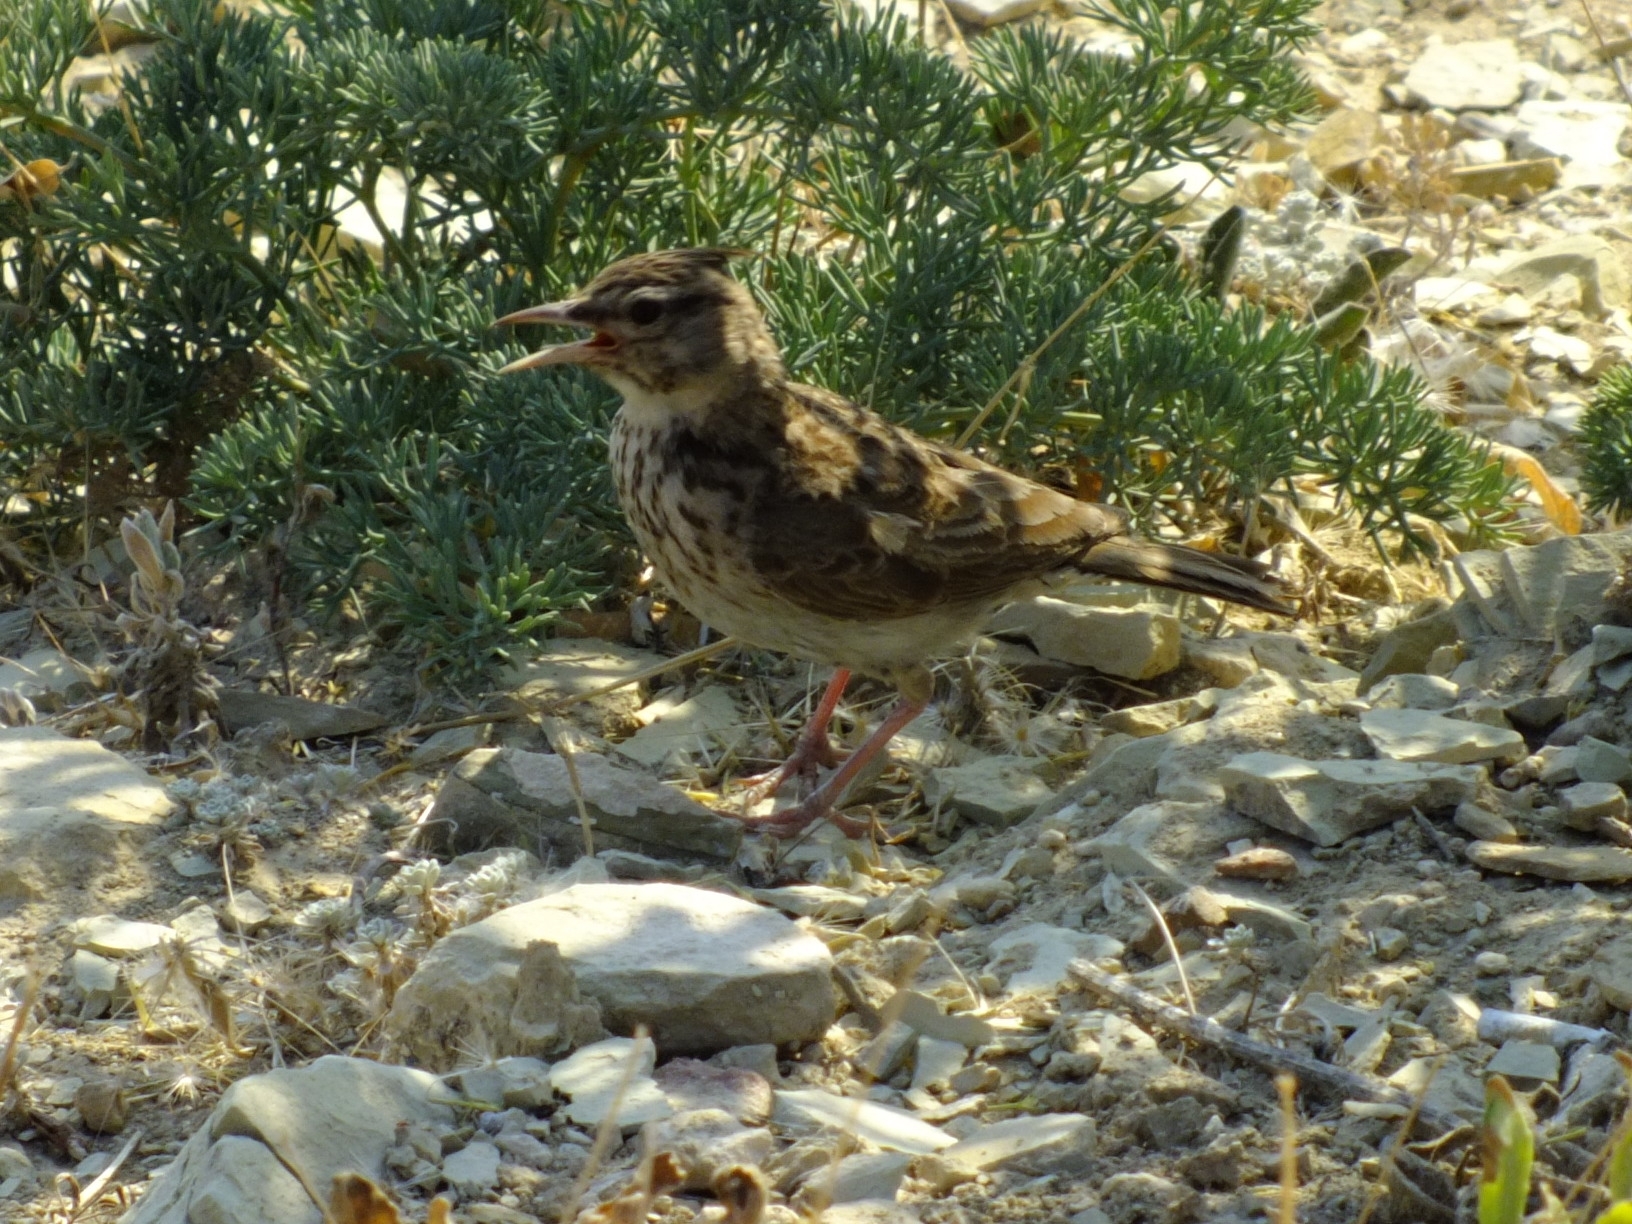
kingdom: Animalia
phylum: Chordata
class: Aves
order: Passeriformes
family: Alaudidae
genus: Galerida
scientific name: Galerida cristata
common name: Crested lark
